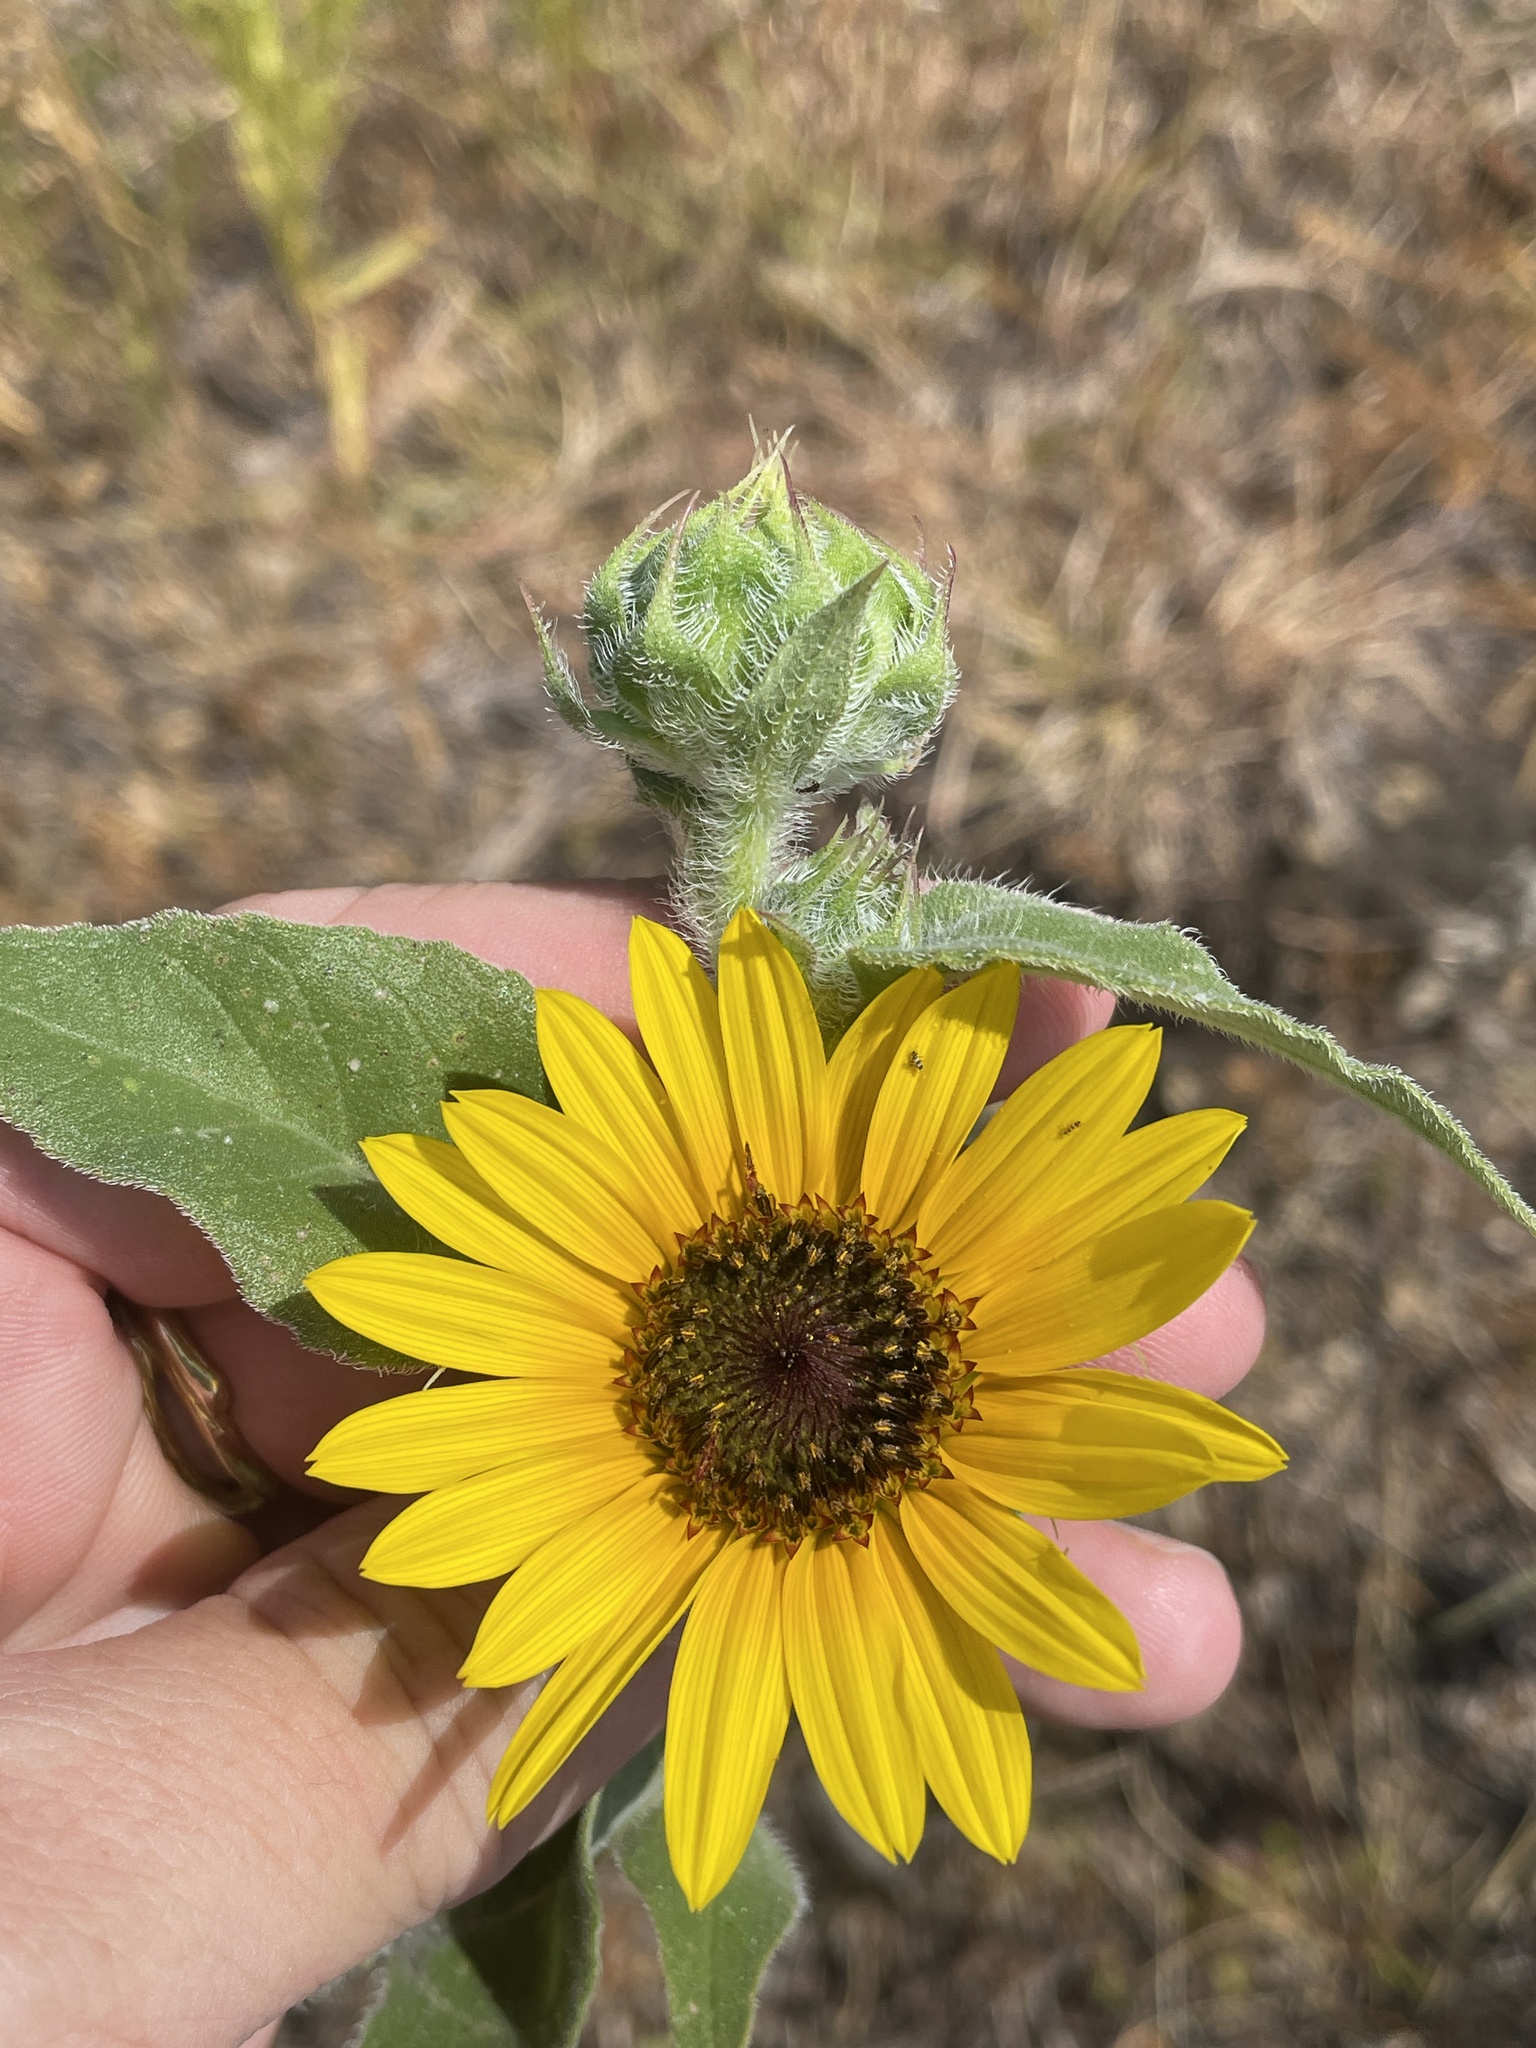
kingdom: Plantae
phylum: Tracheophyta
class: Magnoliopsida
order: Asterales
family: Asteraceae
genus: Helianthus
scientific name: Helianthus annuus
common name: Sunflower
